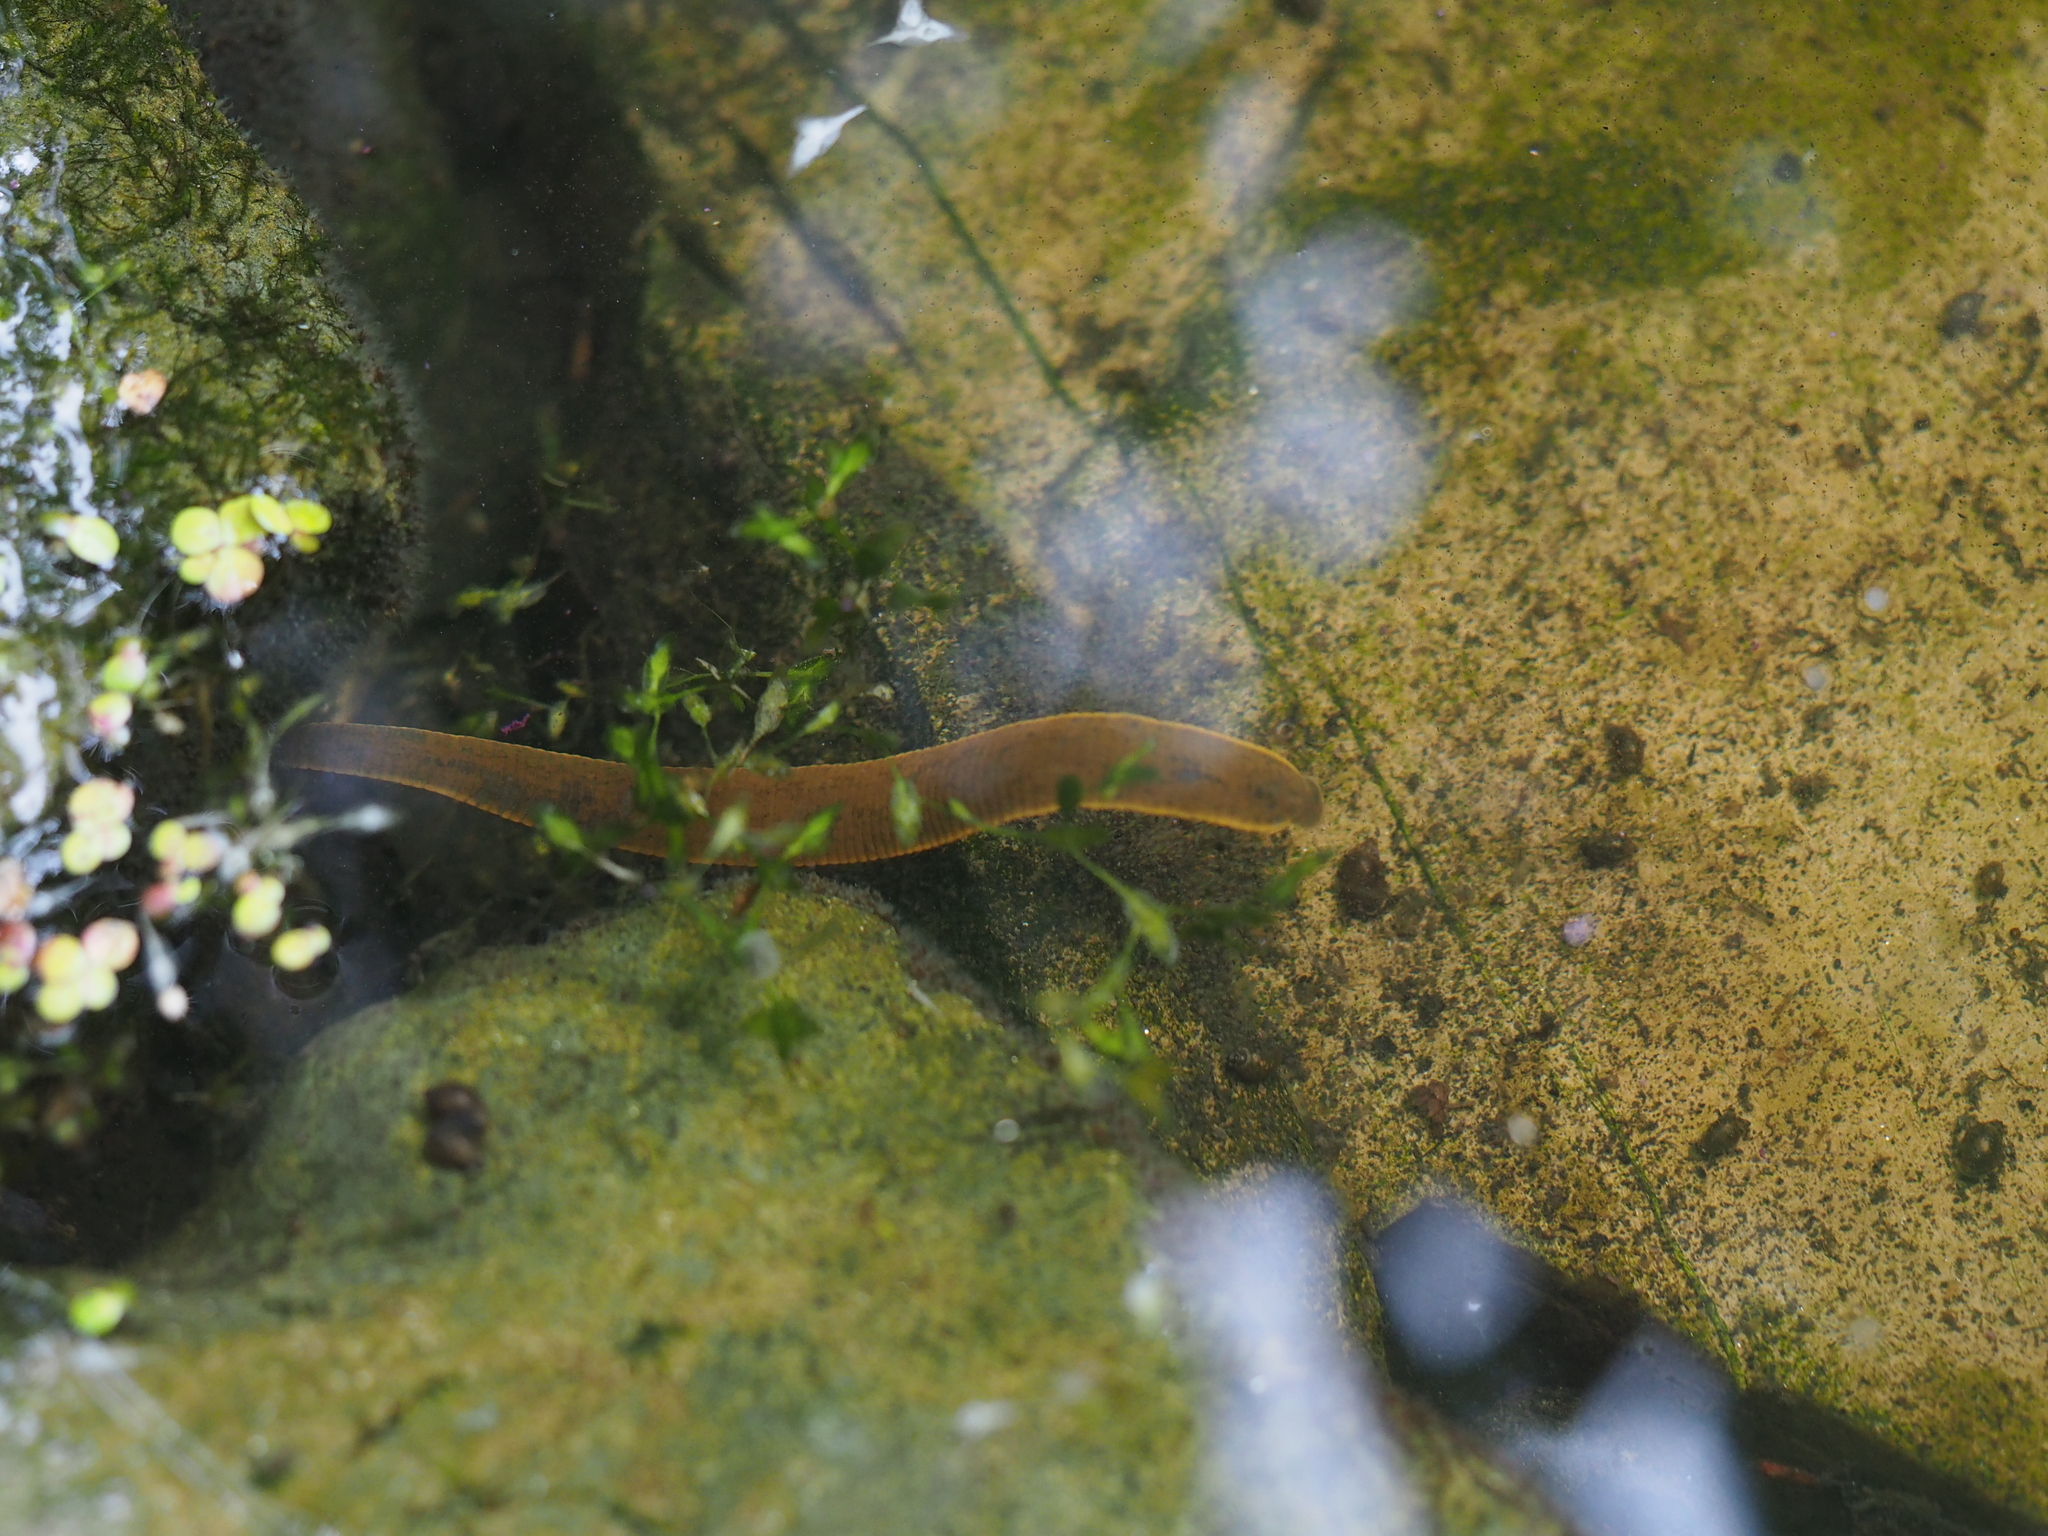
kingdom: Animalia
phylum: Annelida
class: Clitellata
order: Arhynchobdellida
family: Haemopidae
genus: Haemopis
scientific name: Haemopis sanguisuga
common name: Horse leech
